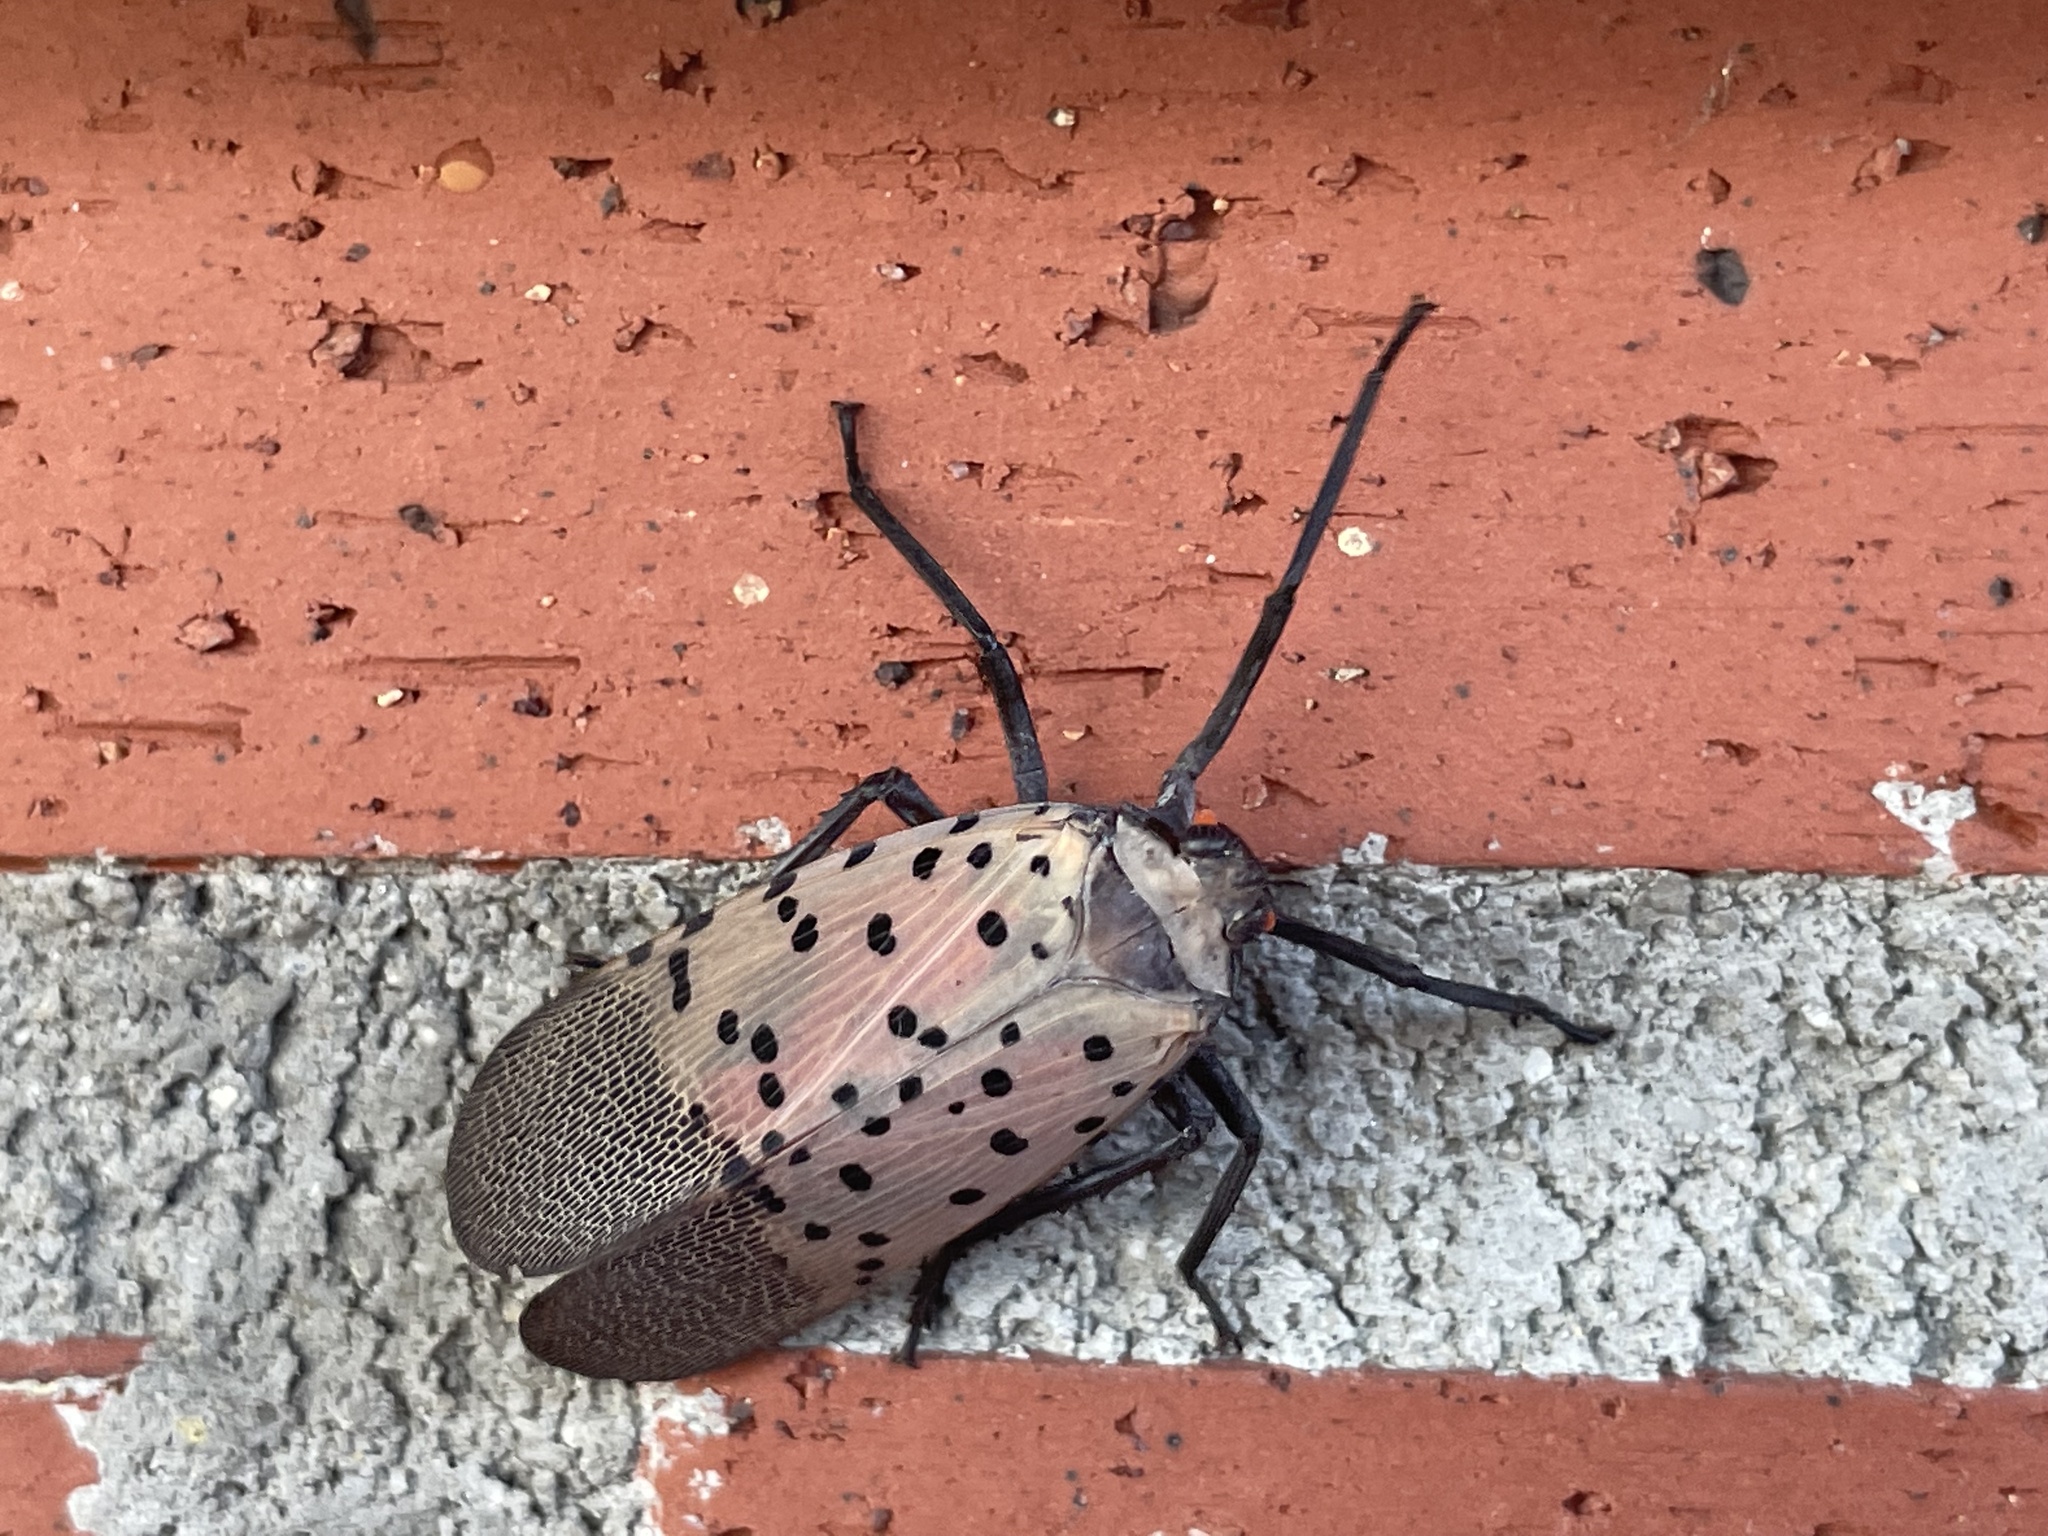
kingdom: Animalia
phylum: Arthropoda
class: Insecta
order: Hemiptera
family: Fulgoridae
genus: Lycorma
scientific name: Lycorma delicatula
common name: Spotted lanternfly
